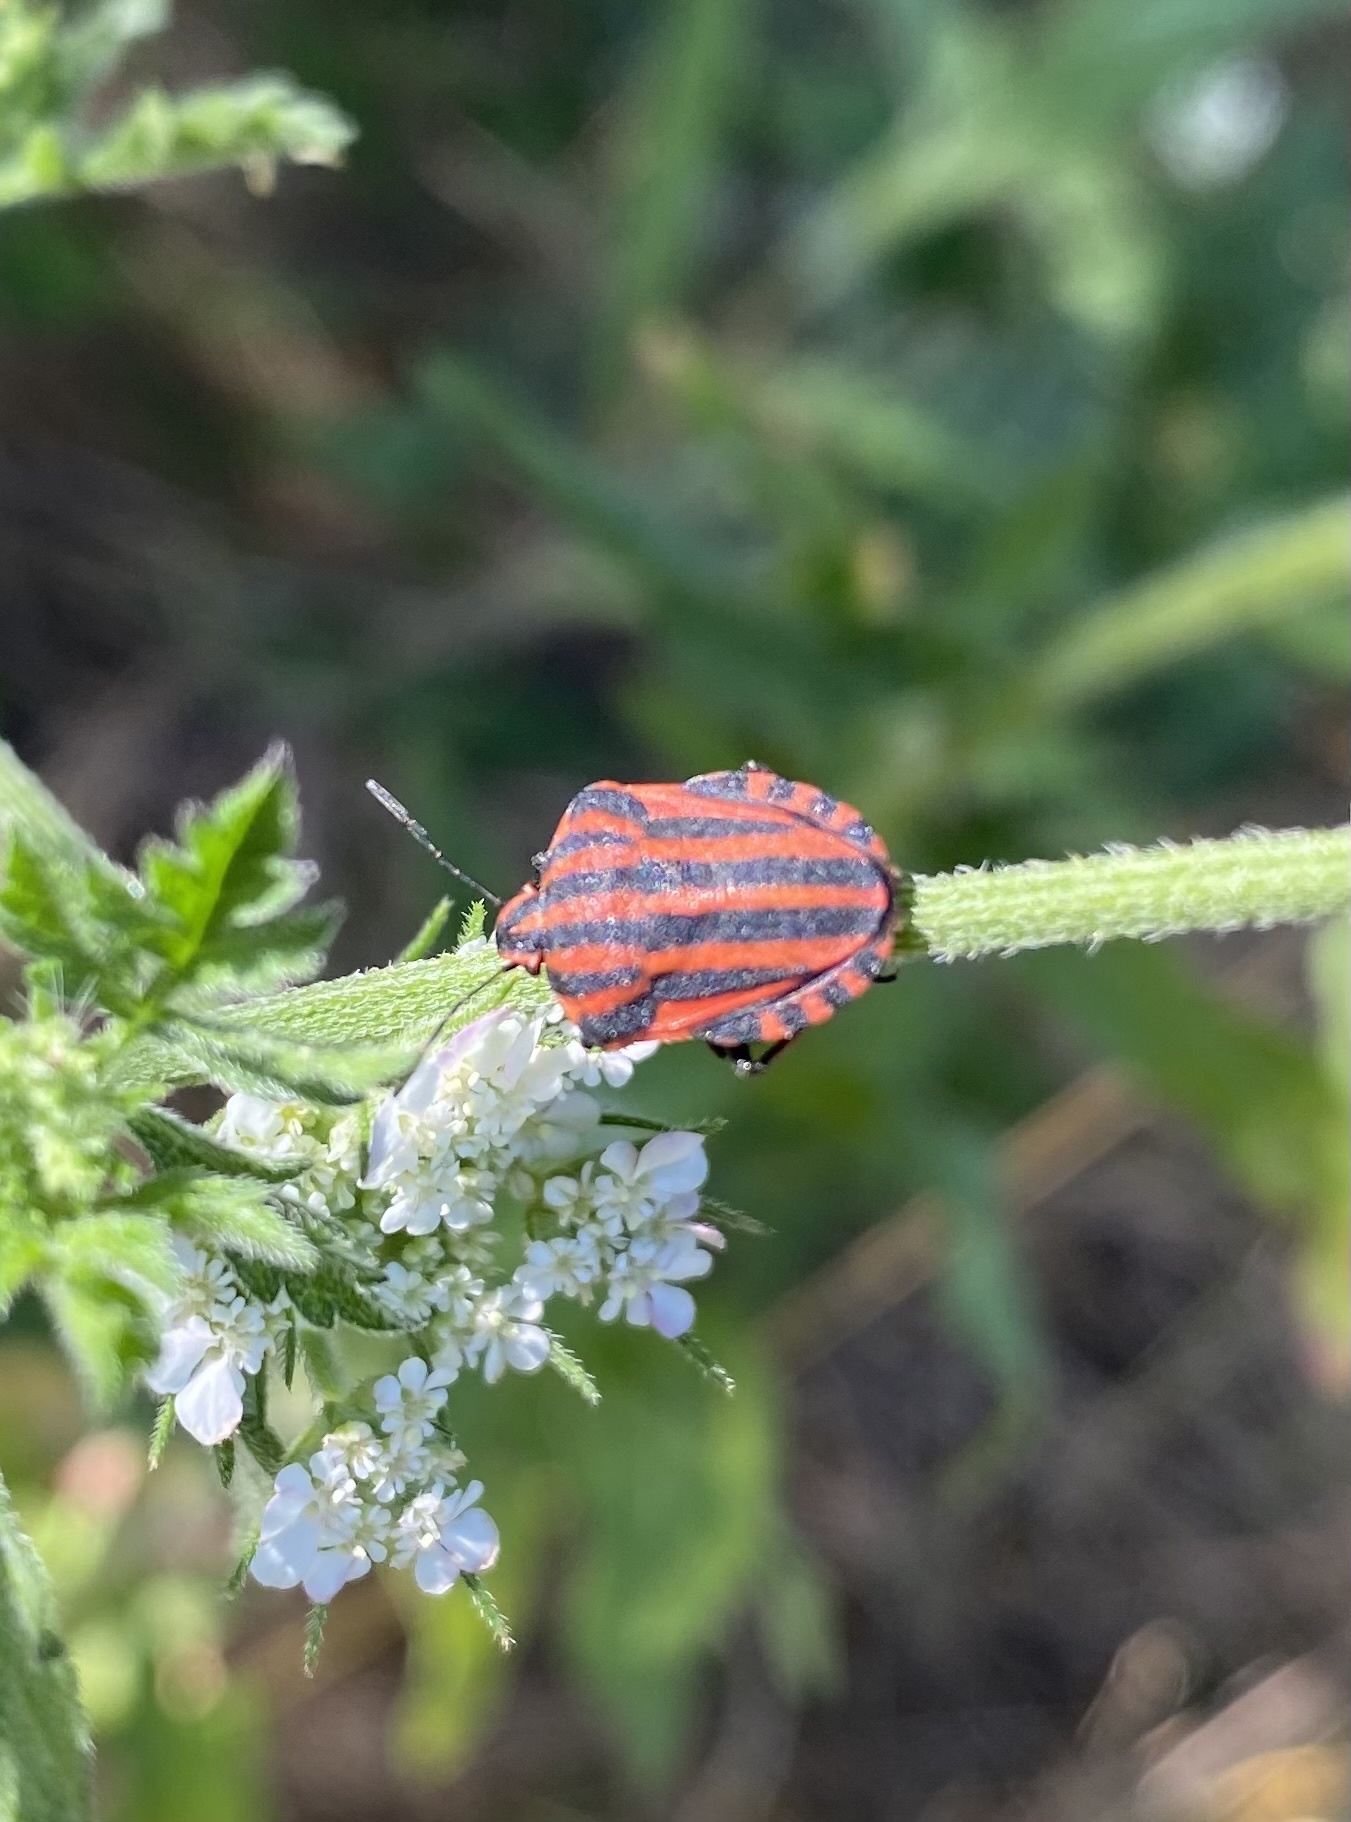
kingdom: Animalia
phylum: Arthropoda
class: Insecta
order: Hemiptera
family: Pentatomidae
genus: Graphosoma
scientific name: Graphosoma italicum
